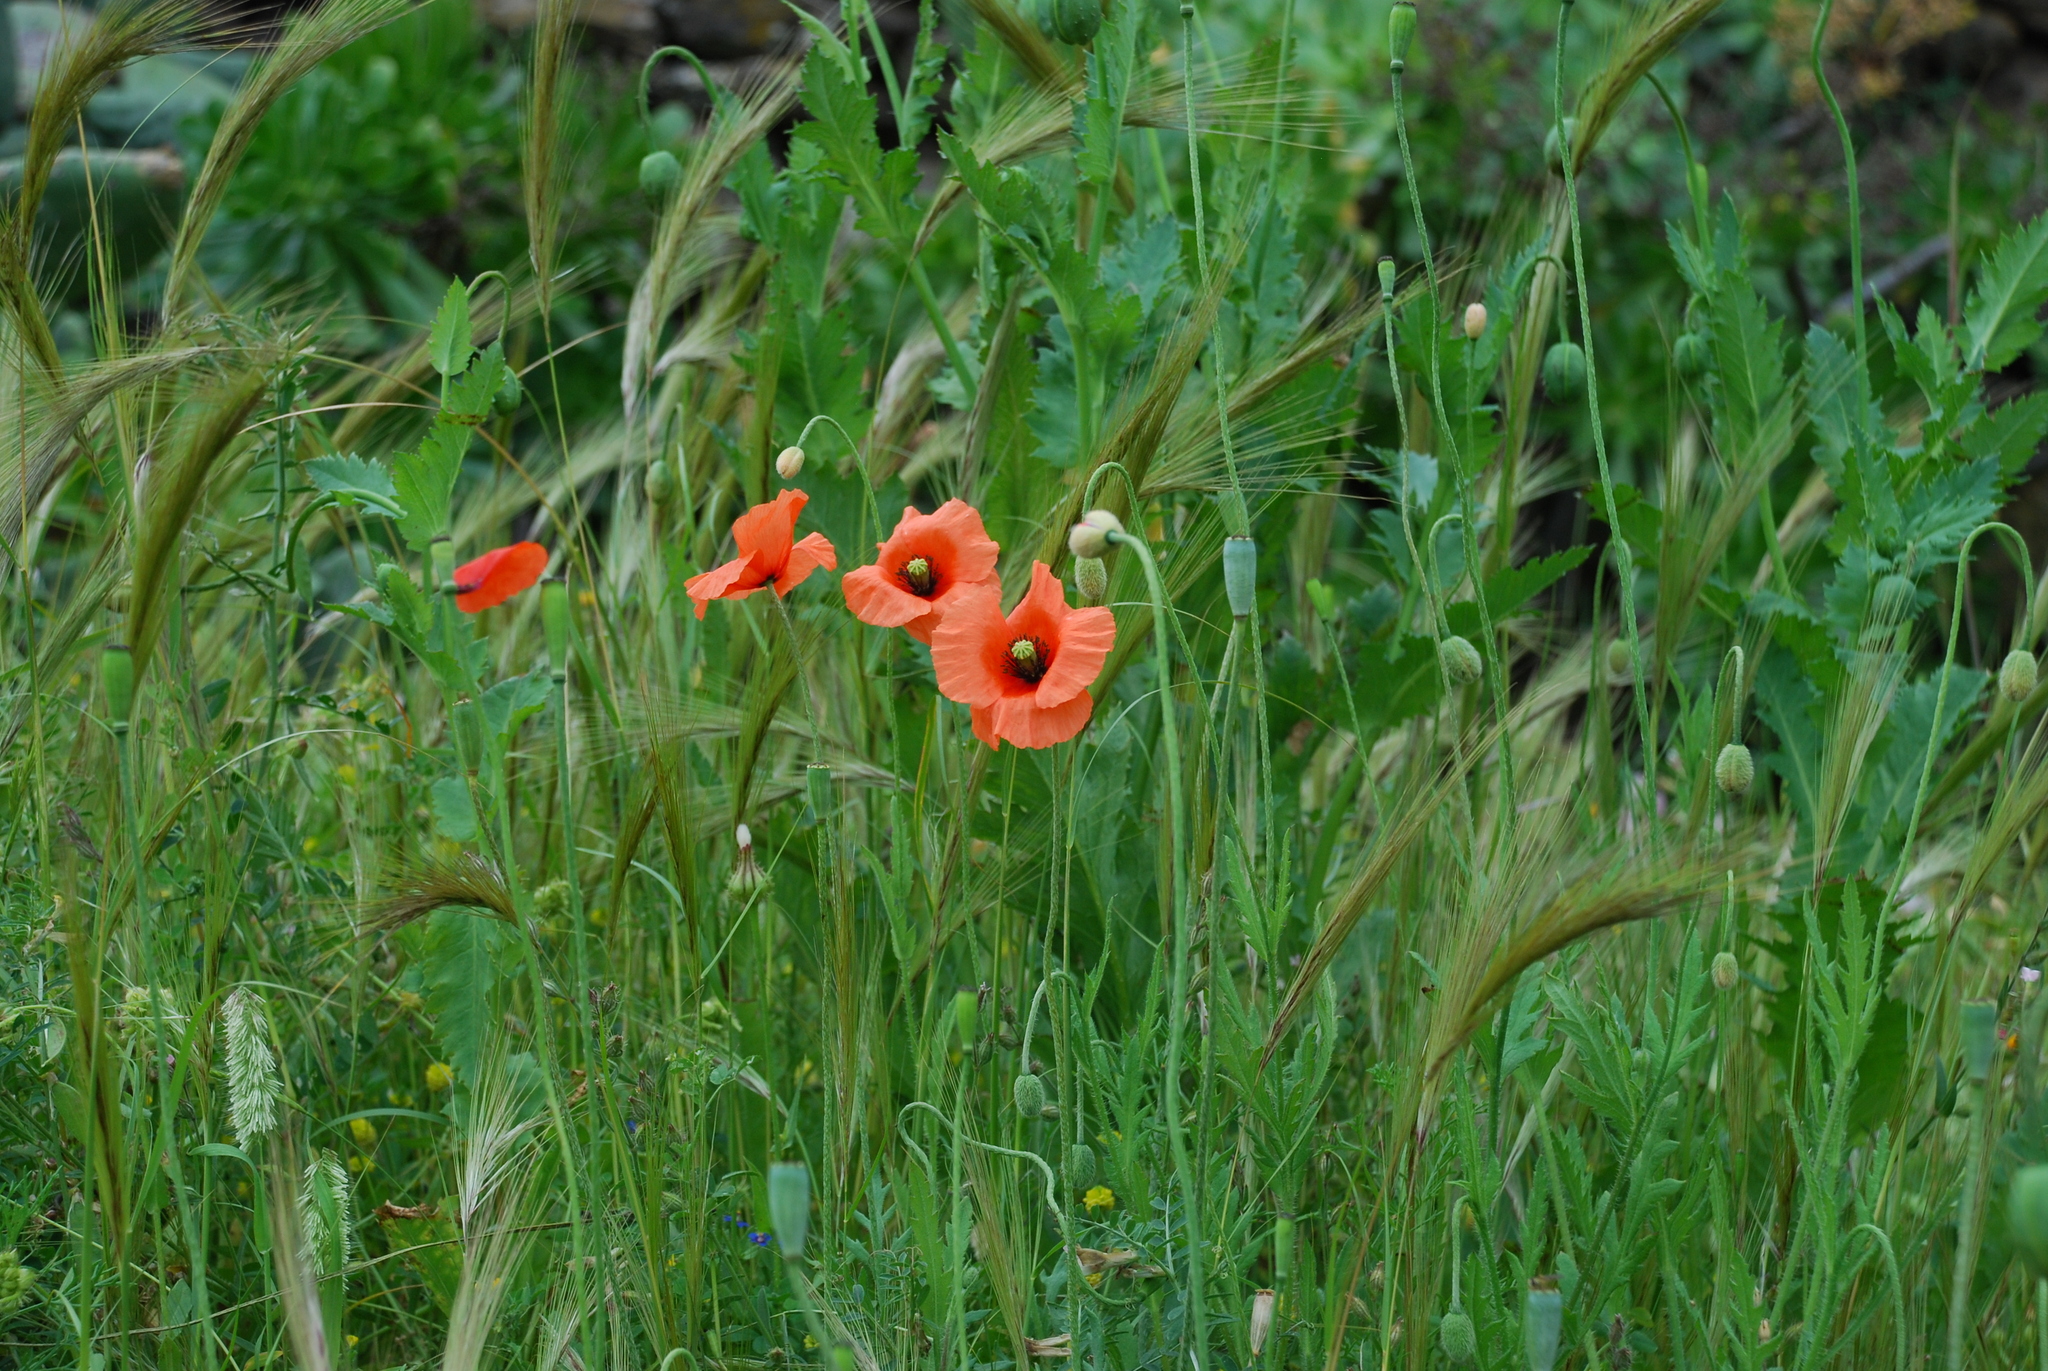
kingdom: Plantae
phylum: Tracheophyta
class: Magnoliopsida
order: Ranunculales
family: Papaveraceae
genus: Papaver
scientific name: Papaver rhoeas
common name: Corn poppy
